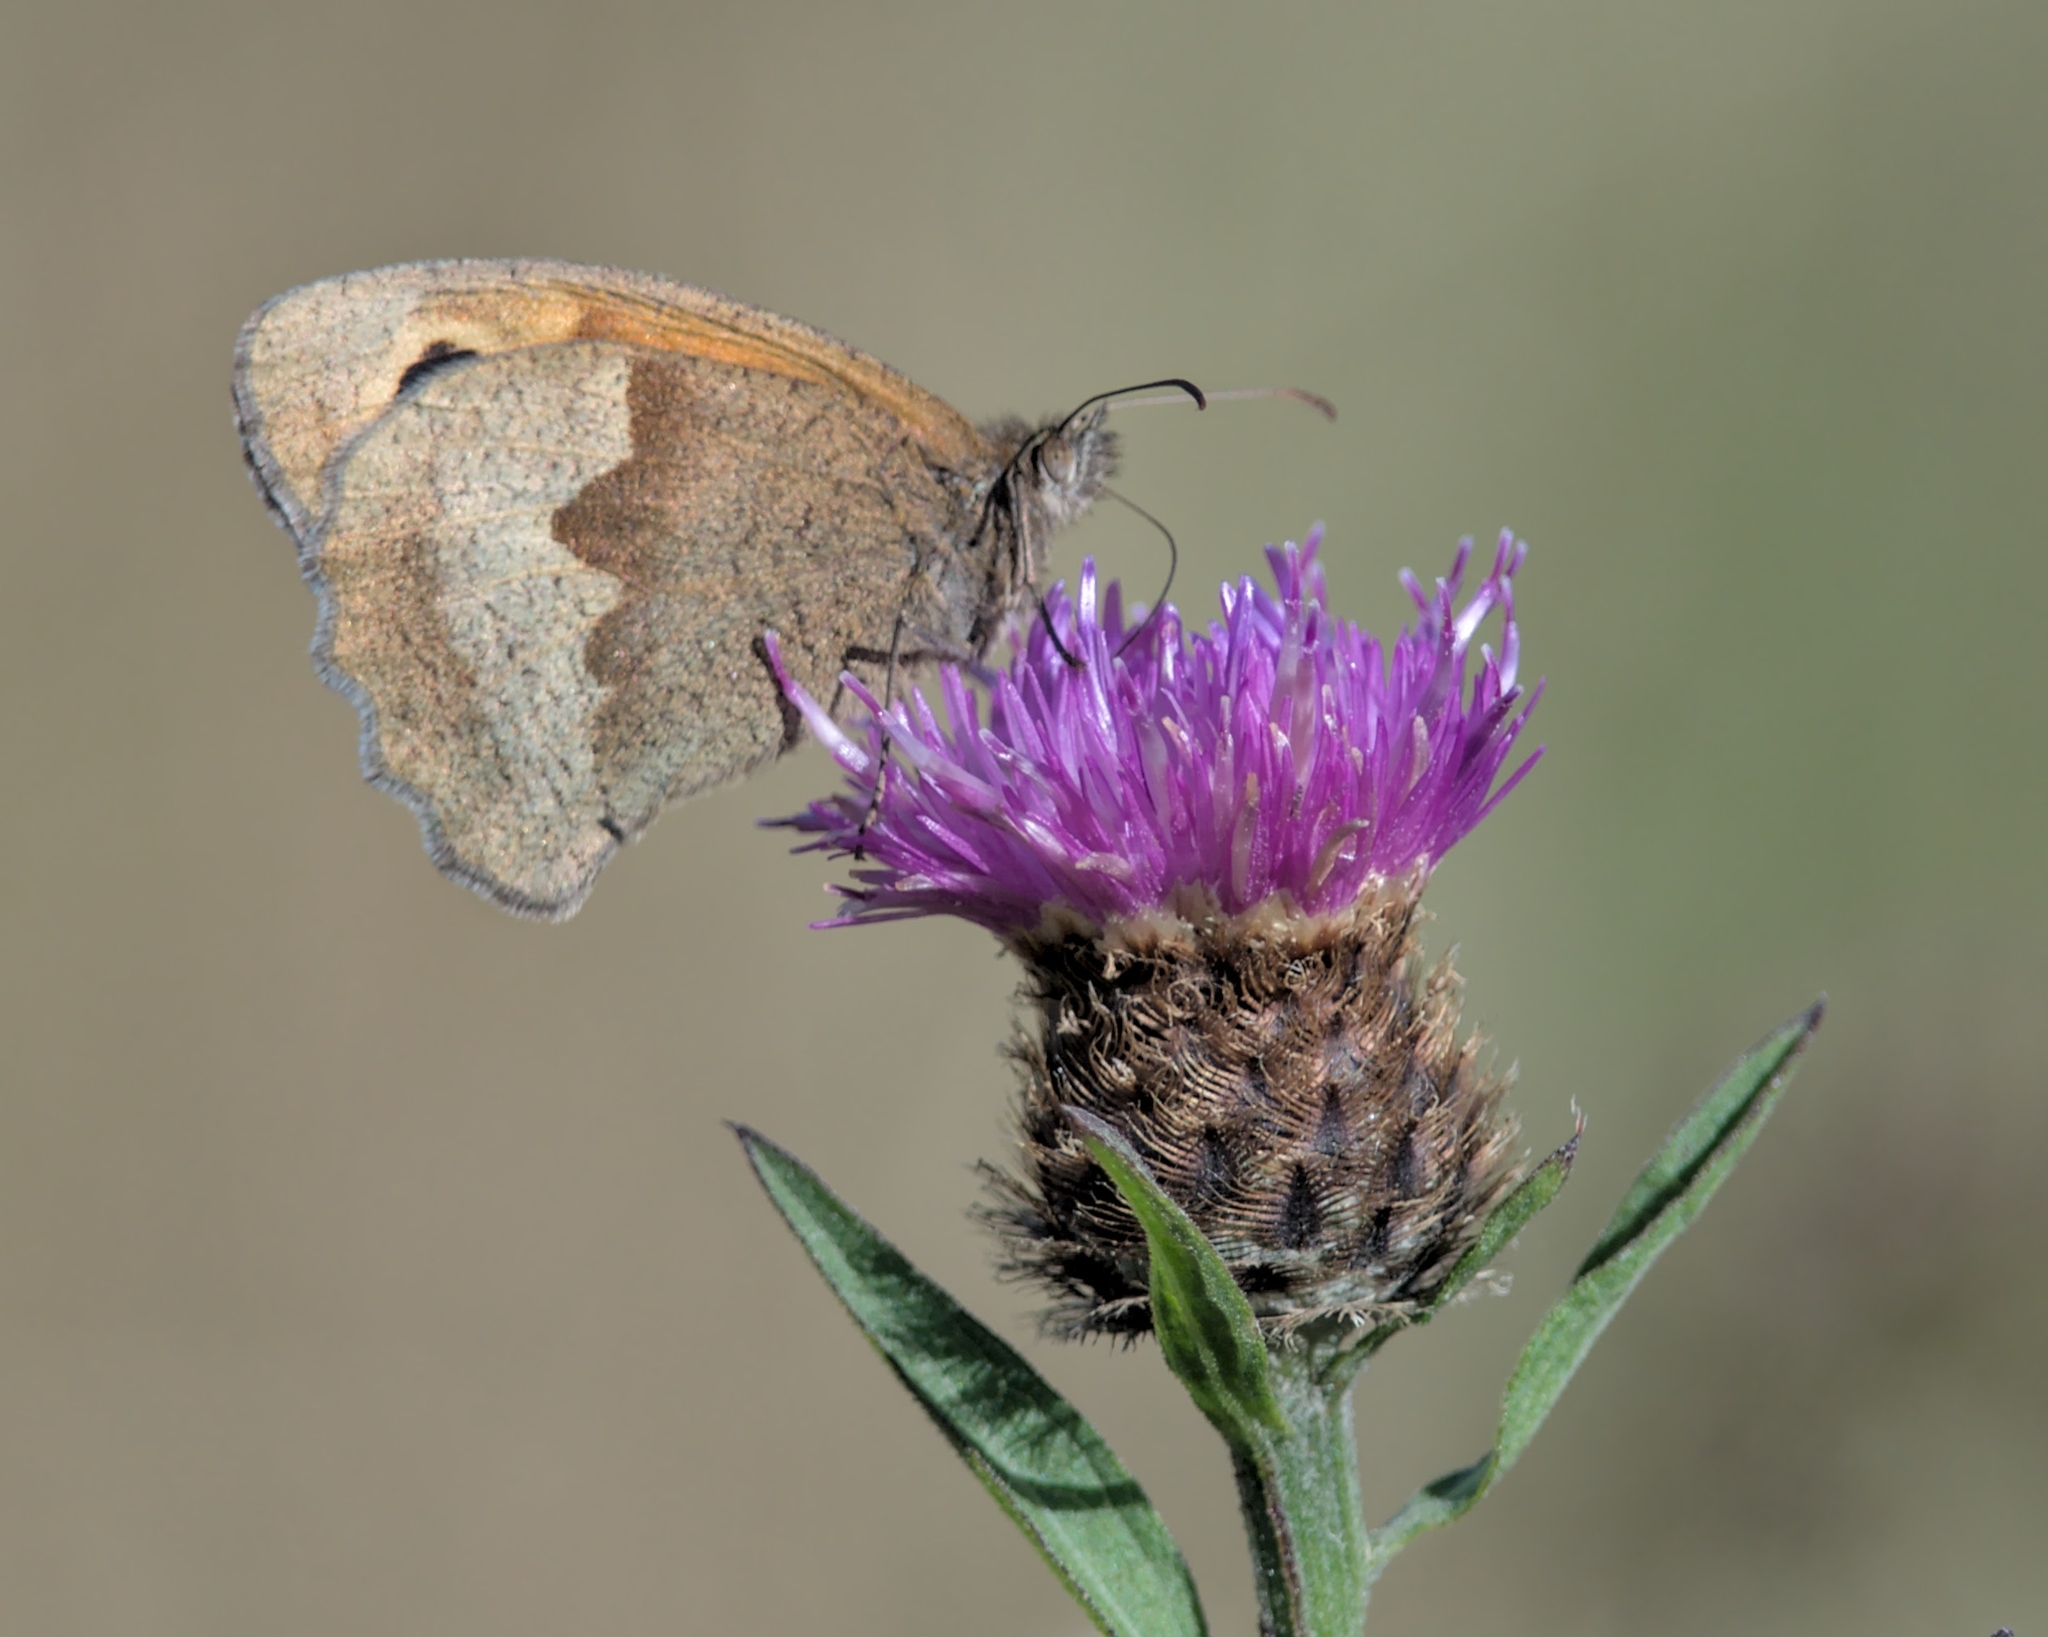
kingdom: Animalia
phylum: Arthropoda
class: Insecta
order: Lepidoptera
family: Nymphalidae
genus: Maniola
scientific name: Maniola jurtina
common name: Meadow brown
